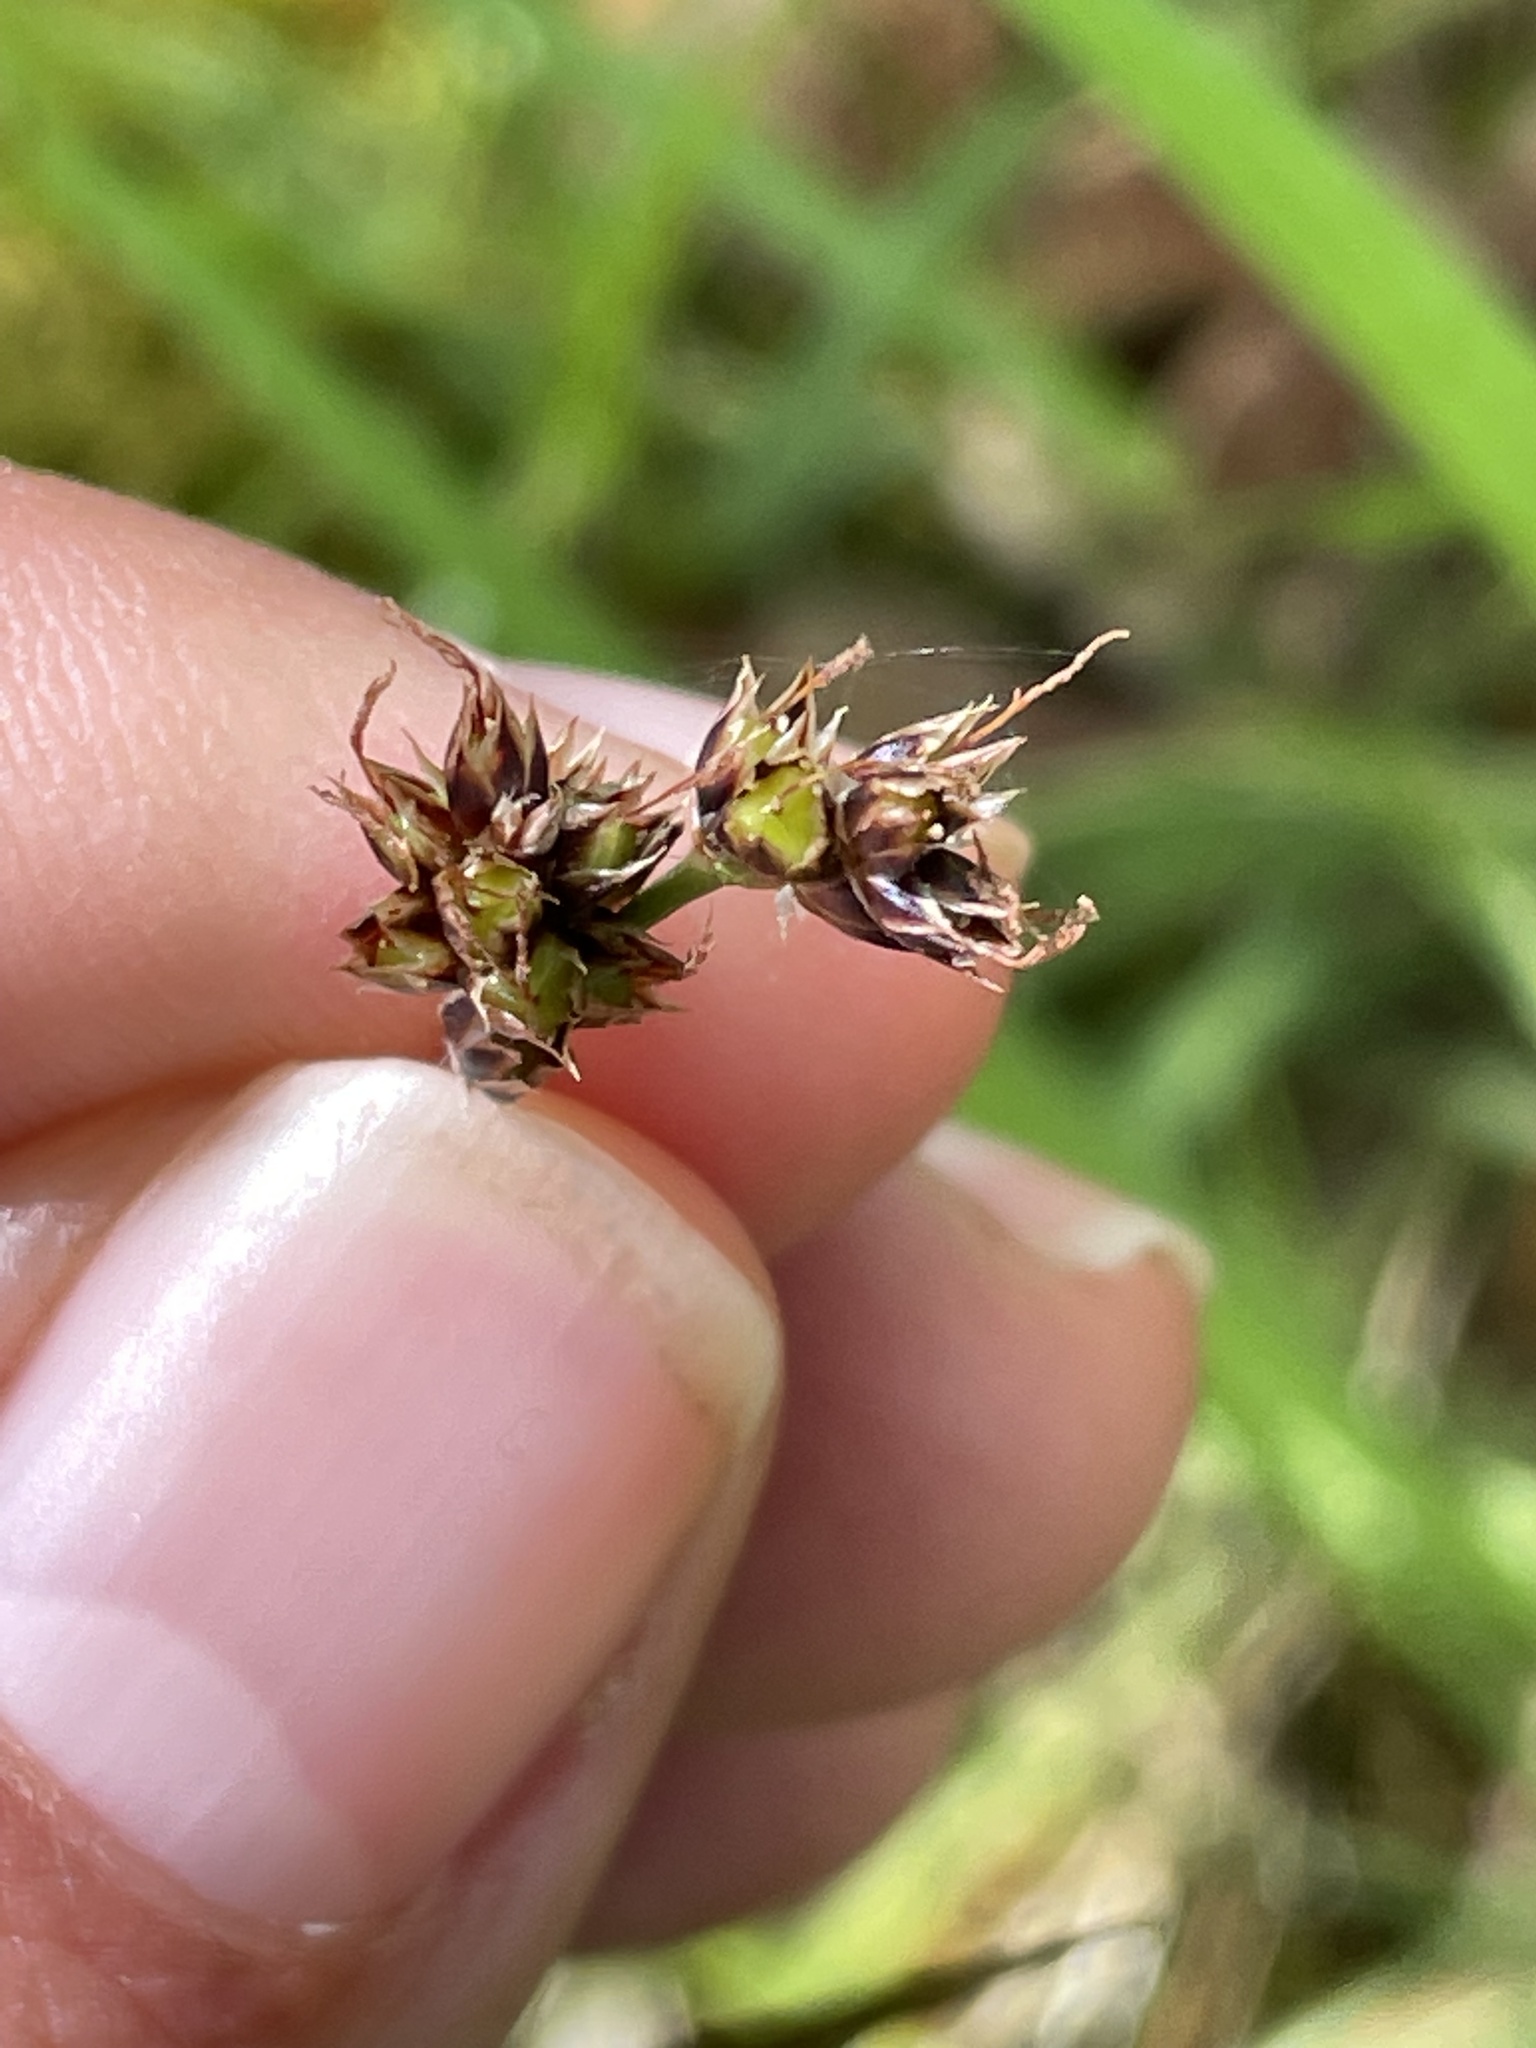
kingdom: Plantae
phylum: Tracheophyta
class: Liliopsida
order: Poales
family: Juncaceae
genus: Luzula
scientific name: Luzula campestris
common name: Field wood-rush
